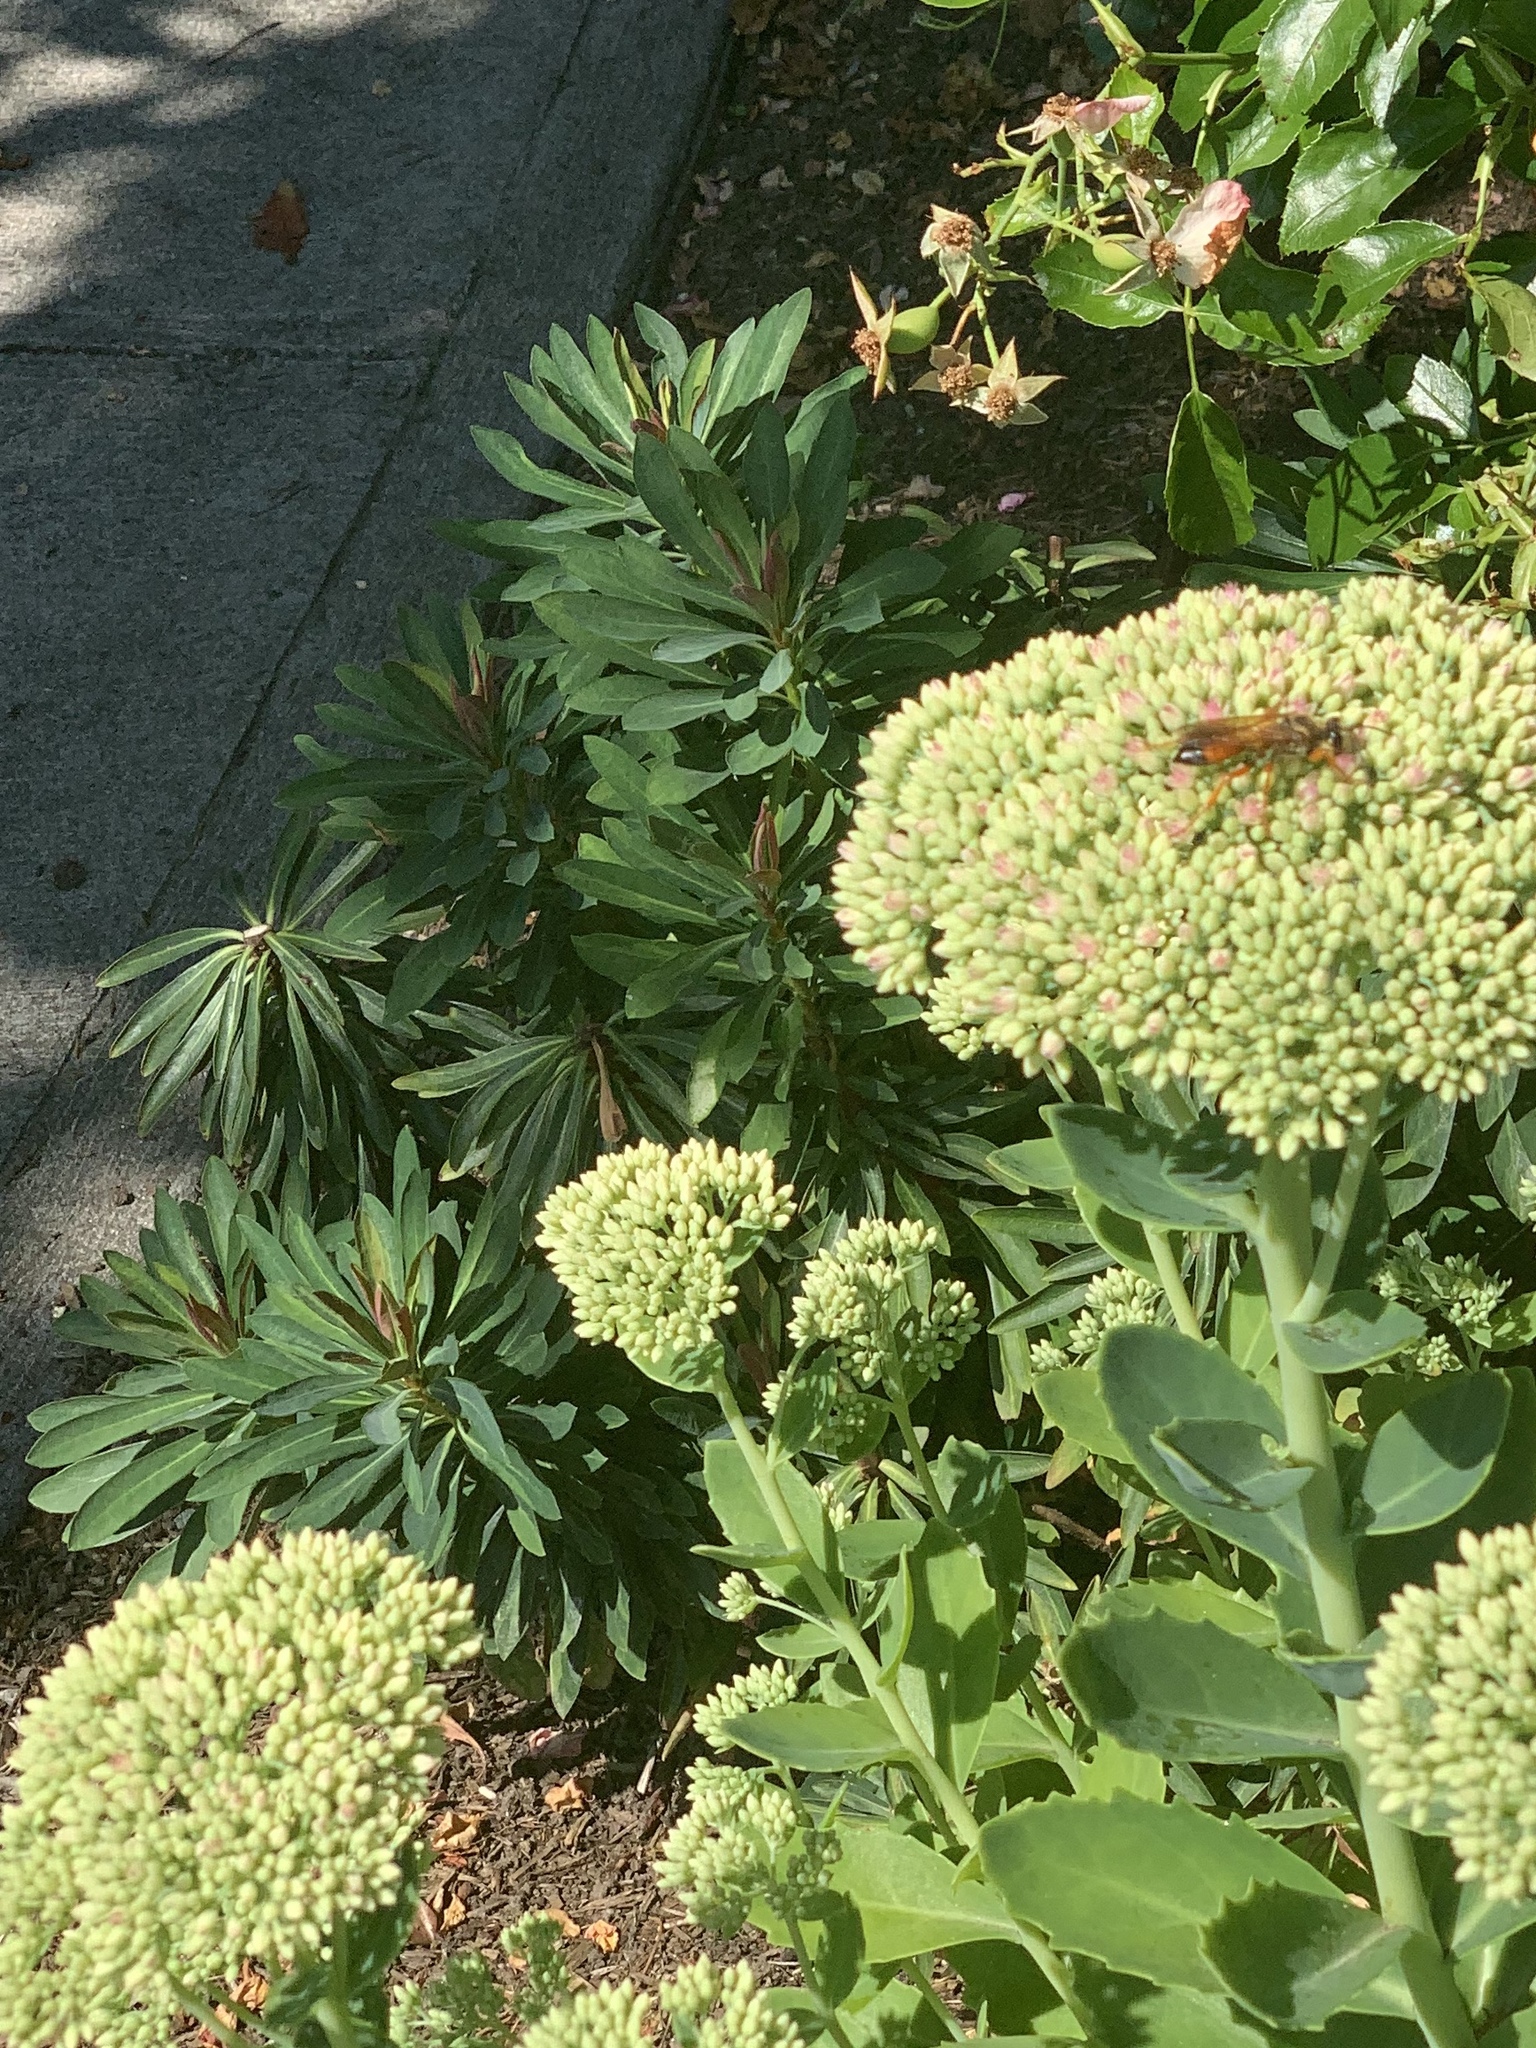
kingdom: Animalia
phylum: Arthropoda
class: Insecta
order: Hymenoptera
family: Sphecidae
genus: Sphex
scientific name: Sphex ichneumoneus
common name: Great golden digger wasp
